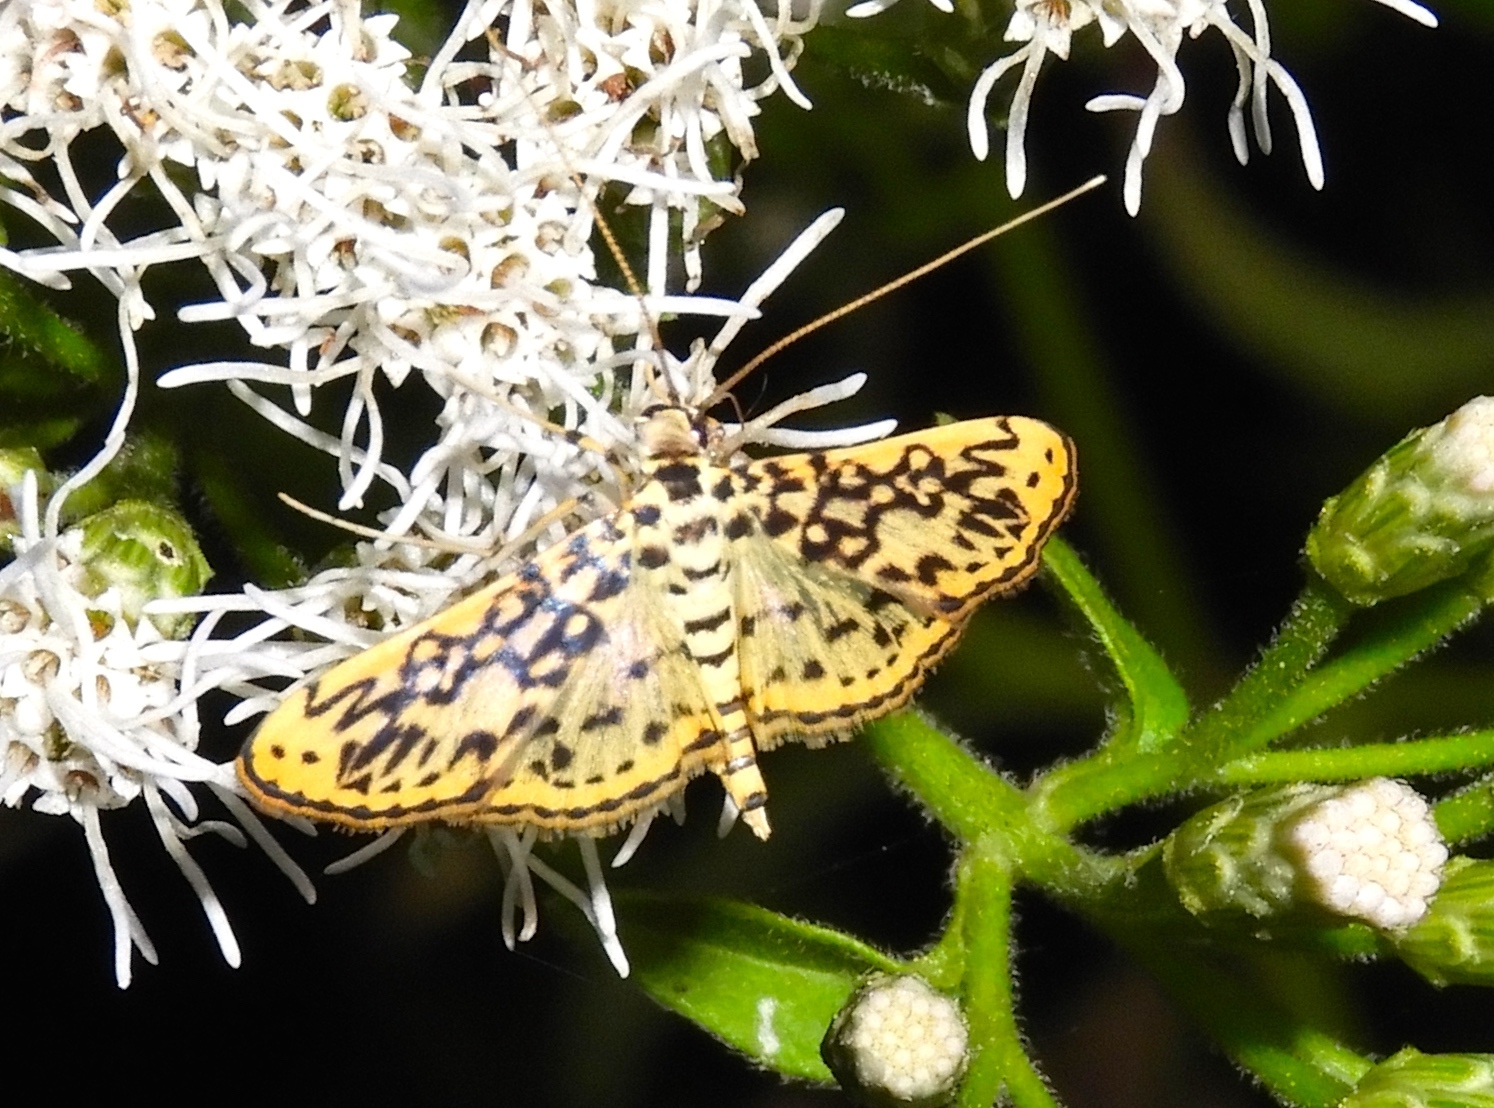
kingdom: Animalia
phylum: Arthropoda
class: Insecta
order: Lepidoptera
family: Crambidae
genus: Asturodes
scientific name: Asturodes fimbriauralis
